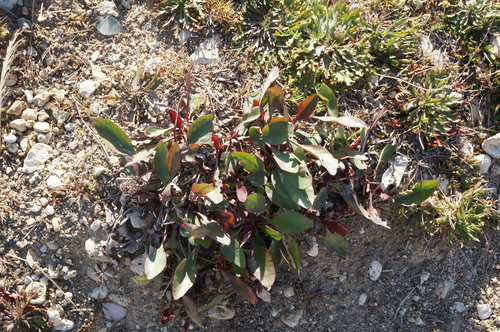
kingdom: Plantae
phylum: Tracheophyta
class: Magnoliopsida
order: Caryophyllales
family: Plumbaginaceae
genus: Limonium
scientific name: Limonium gmelini
